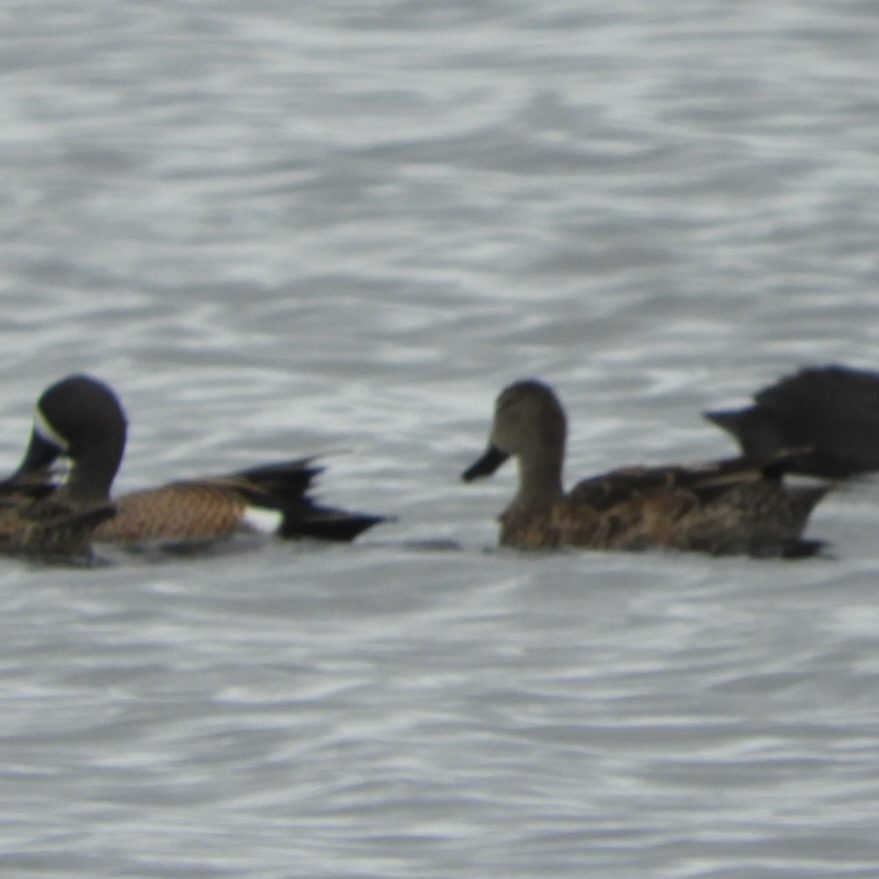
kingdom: Animalia
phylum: Chordata
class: Aves
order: Anseriformes
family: Anatidae
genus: Spatula
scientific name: Spatula discors
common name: Blue-winged teal
